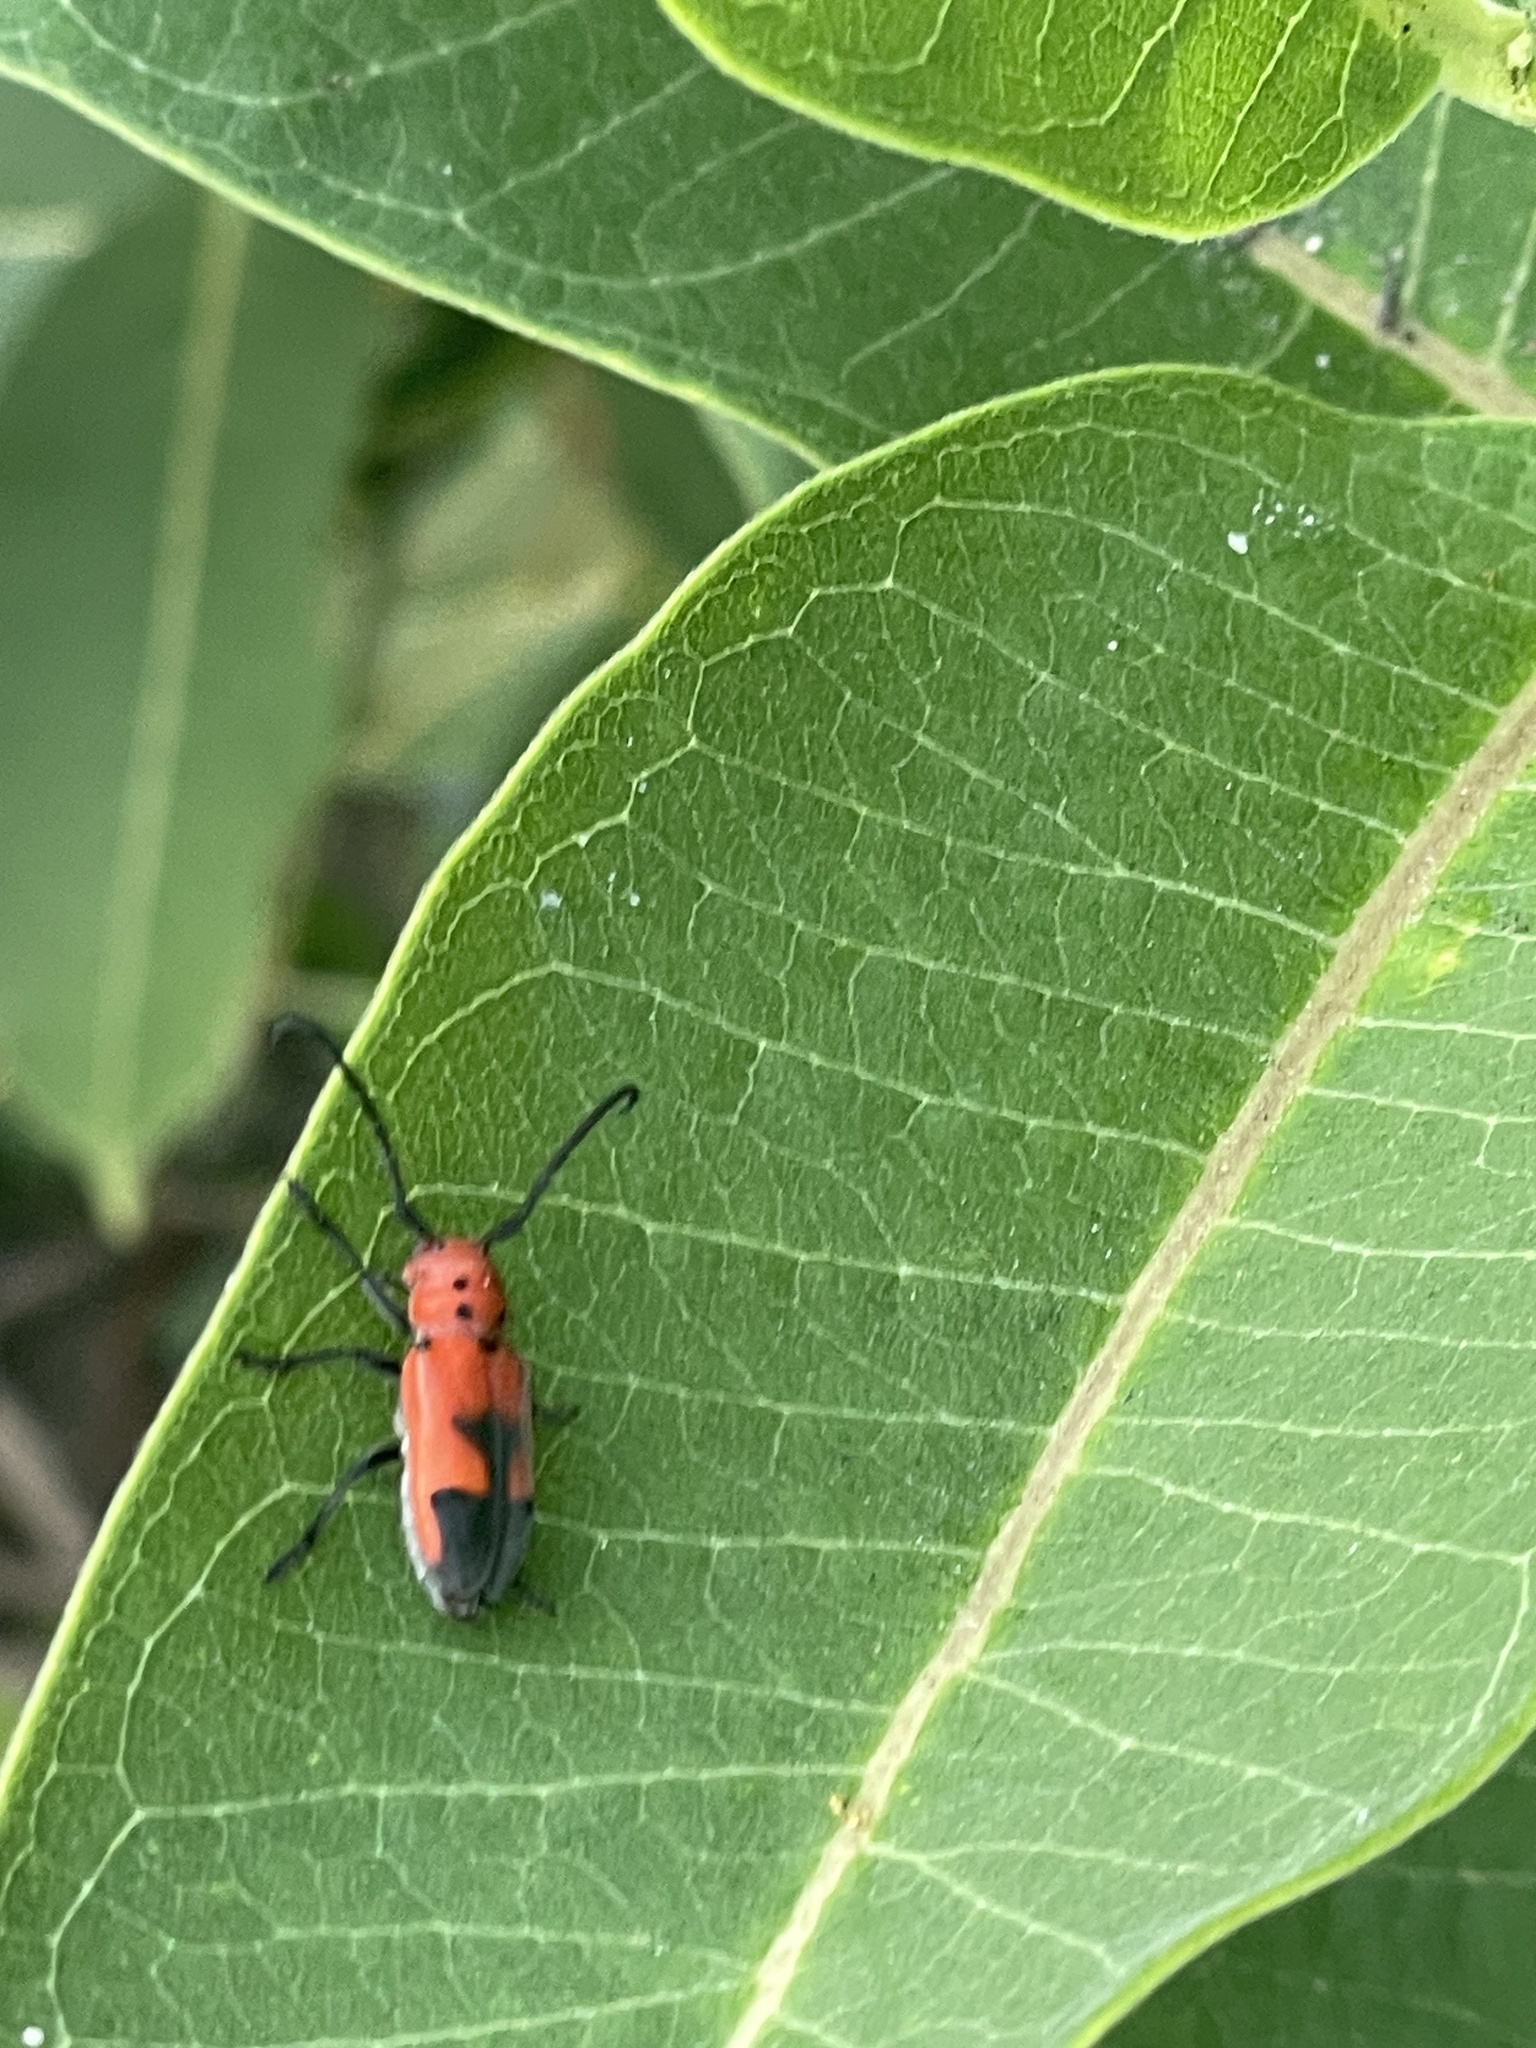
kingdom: Animalia
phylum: Arthropoda
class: Insecta
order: Coleoptera
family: Cerambycidae
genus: Tetraopes
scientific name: Tetraopes melanurus
